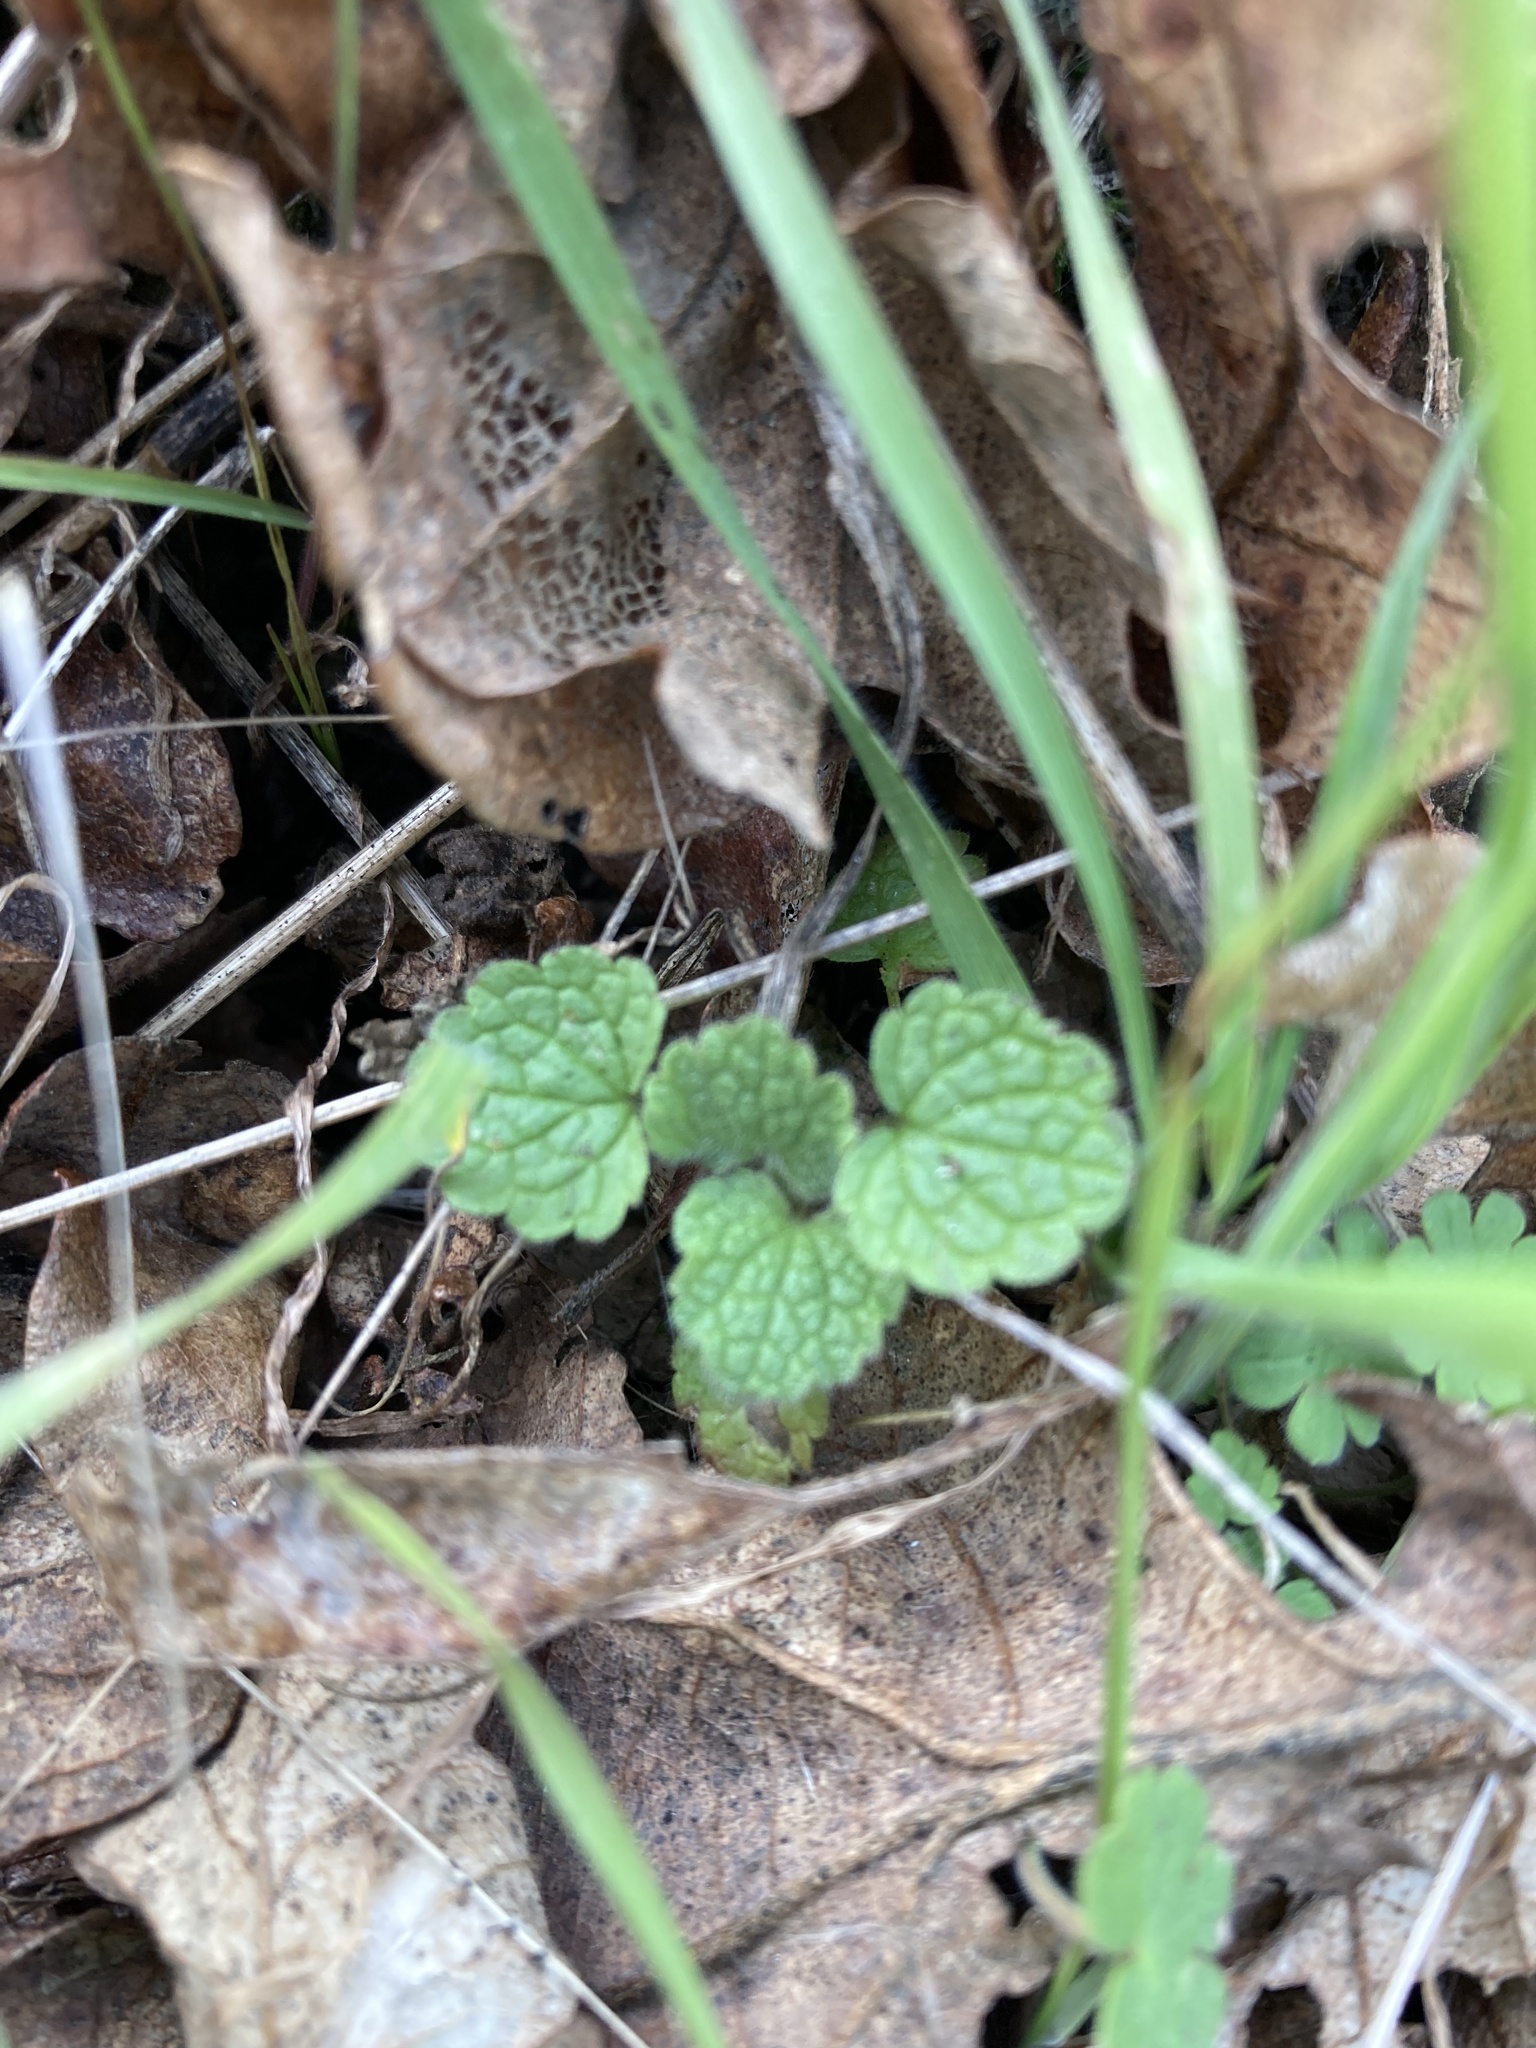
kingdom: Plantae
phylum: Tracheophyta
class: Magnoliopsida
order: Lamiales
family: Lamiaceae
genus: Lamium
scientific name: Lamium purpureum
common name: Red dead-nettle
